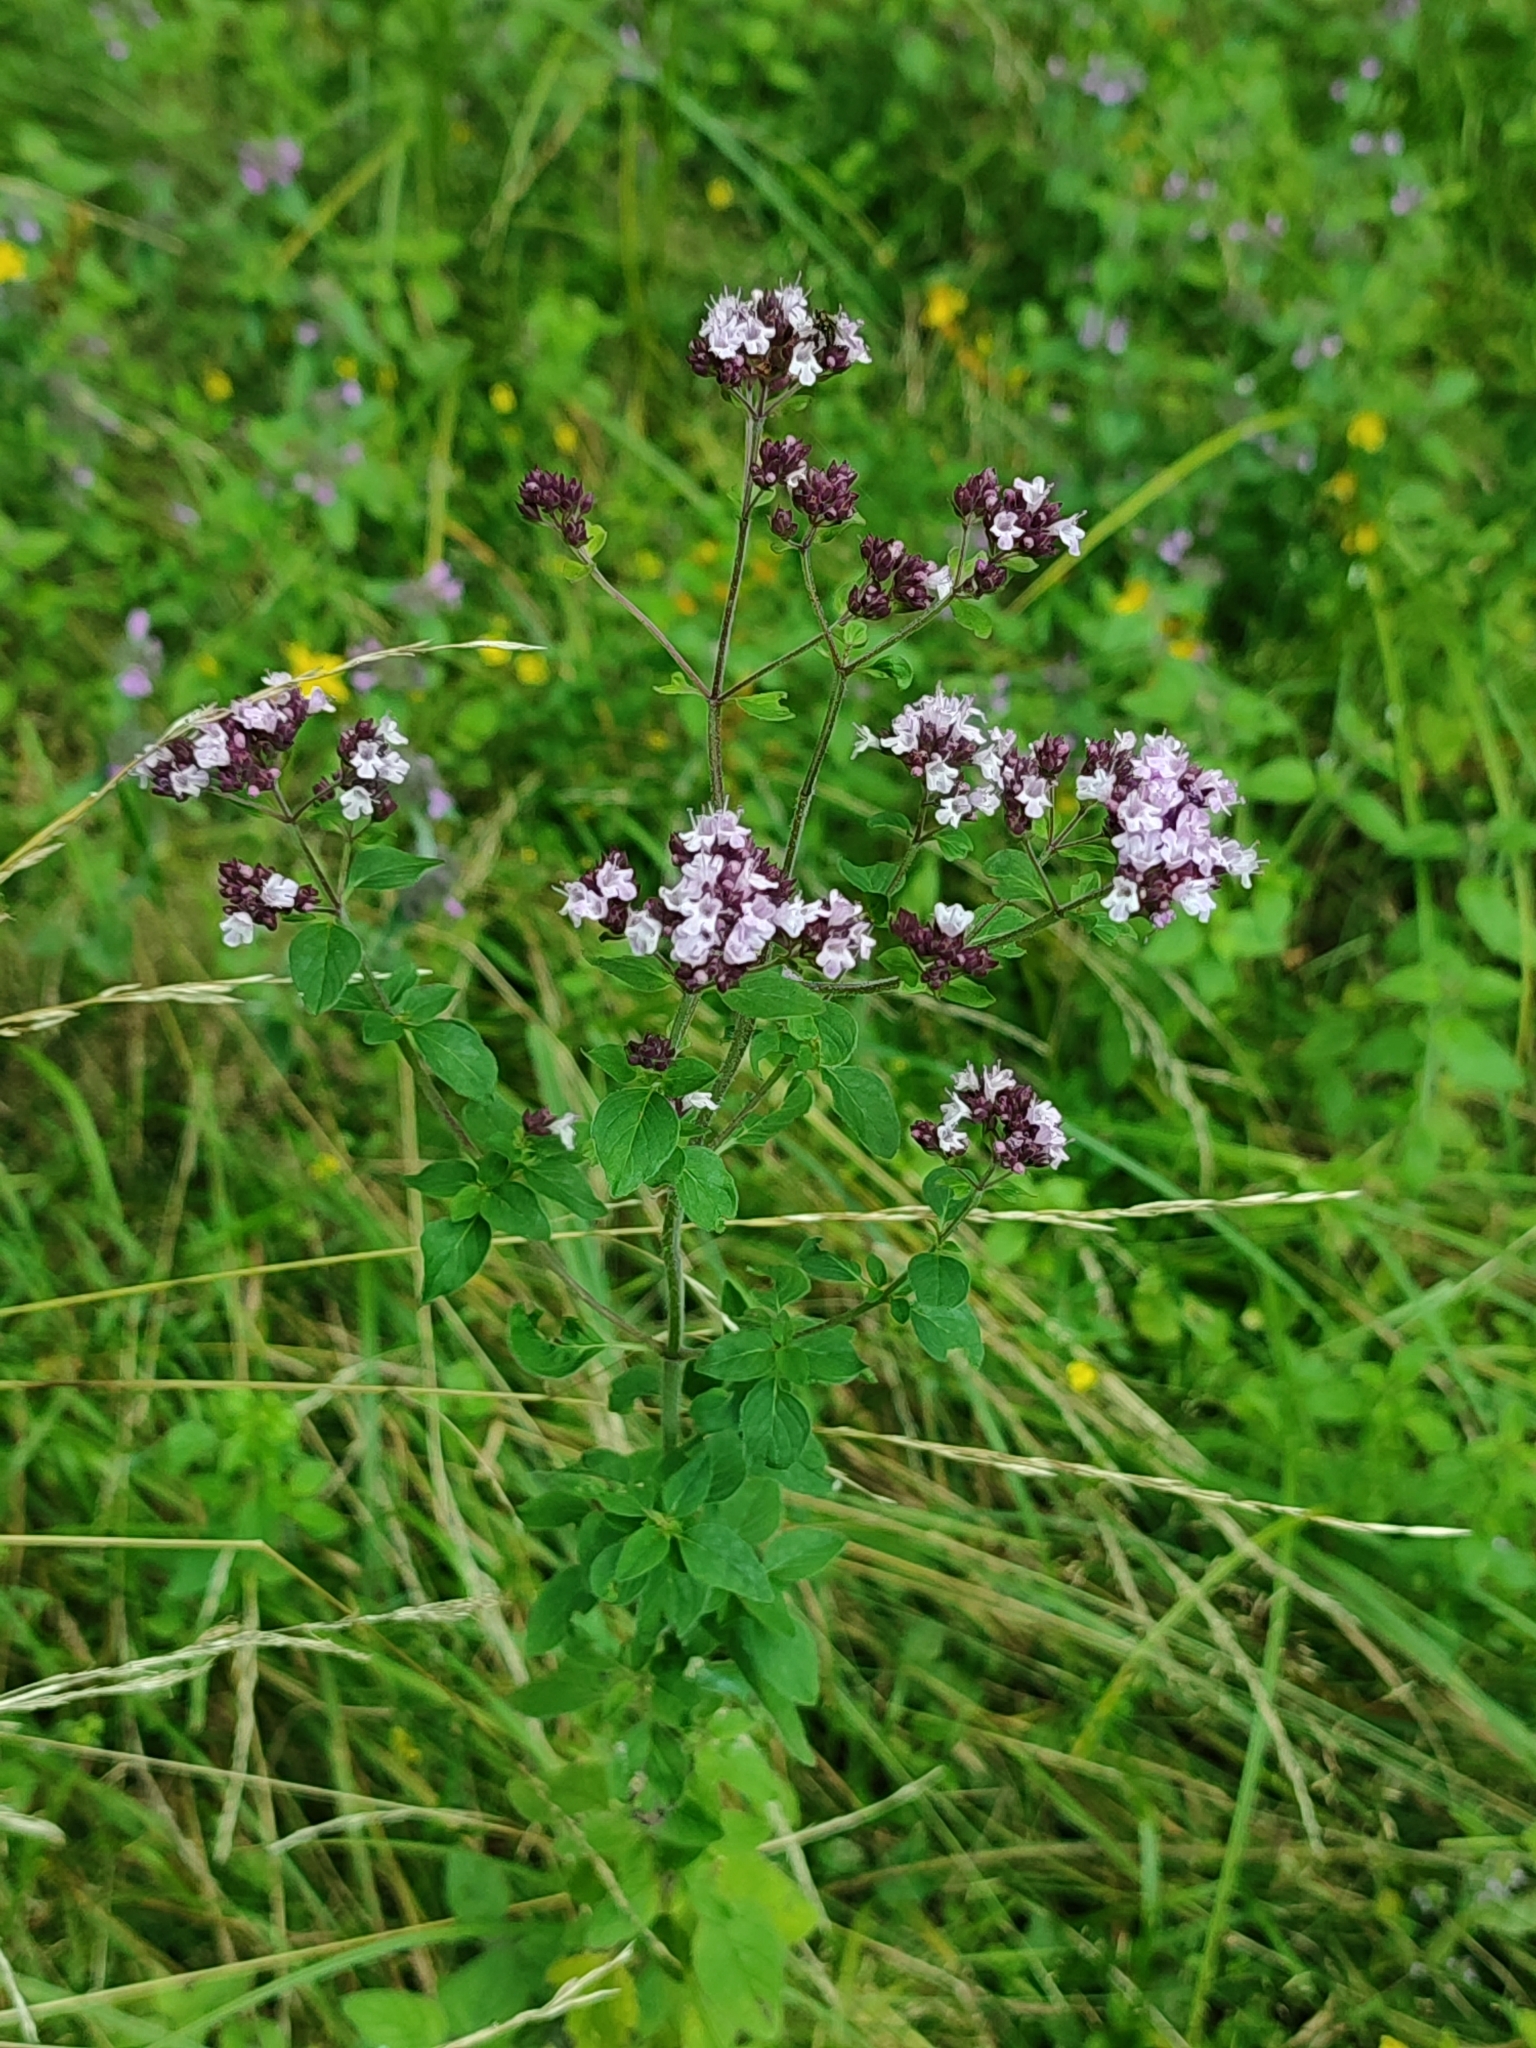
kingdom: Plantae
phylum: Tracheophyta
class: Magnoliopsida
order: Lamiales
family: Lamiaceae
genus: Origanum
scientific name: Origanum vulgare
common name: Wild marjoram
